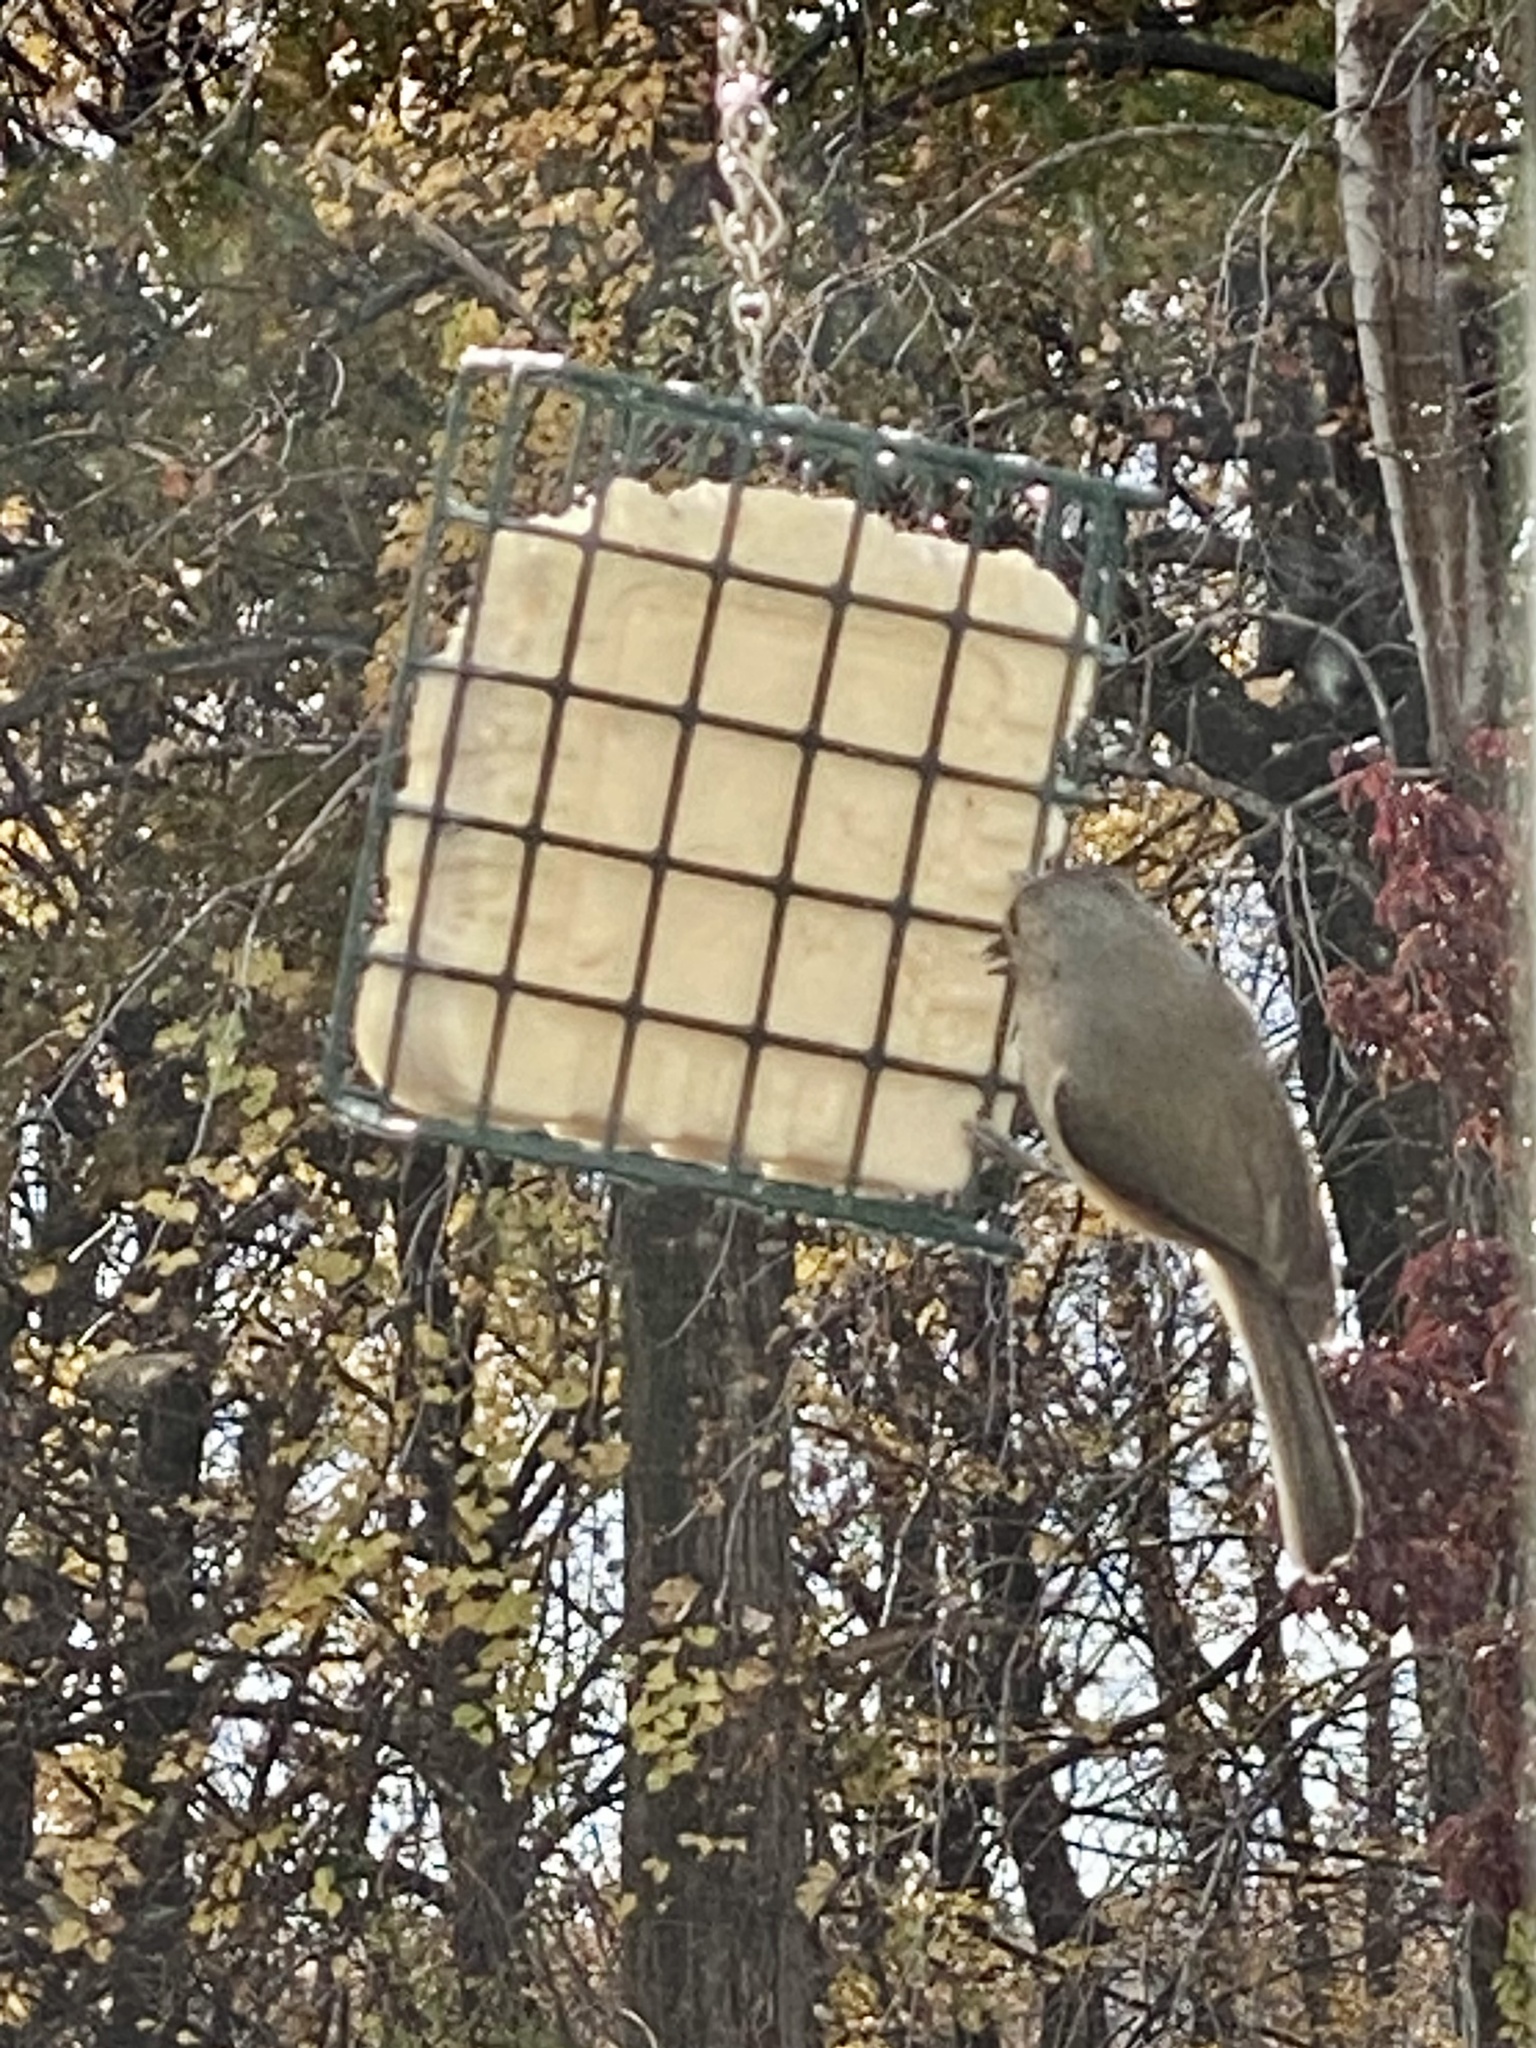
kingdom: Animalia
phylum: Chordata
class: Aves
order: Passeriformes
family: Paridae
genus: Baeolophus
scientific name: Baeolophus bicolor
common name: Tufted titmouse
